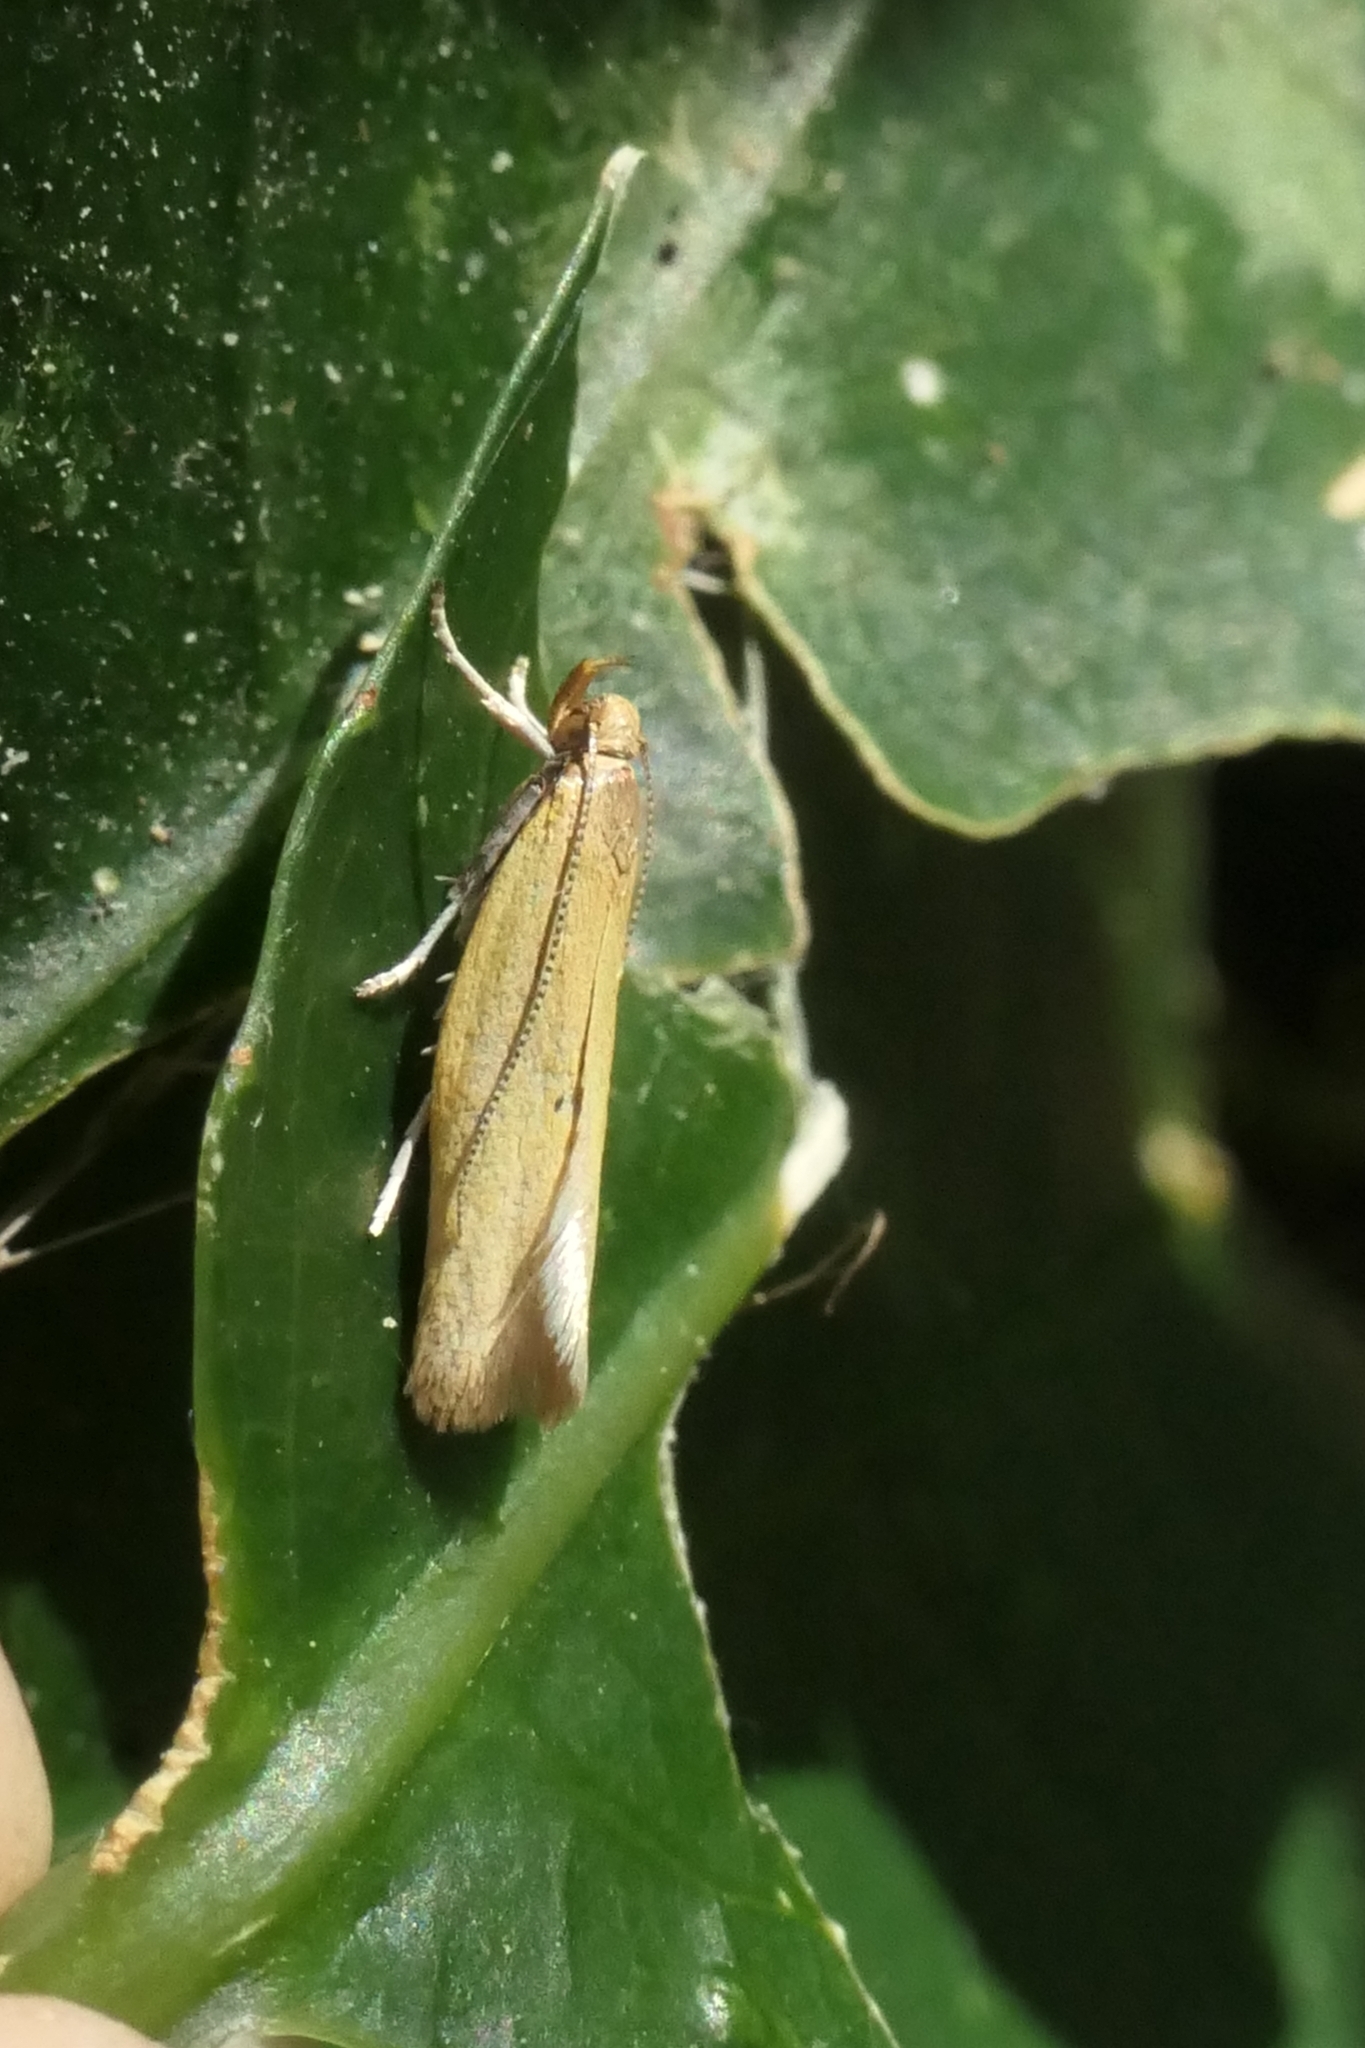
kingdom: Animalia
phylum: Arthropoda
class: Insecta
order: Lepidoptera
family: Oecophoridae
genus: Gymnobathra
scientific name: Gymnobathra parca
